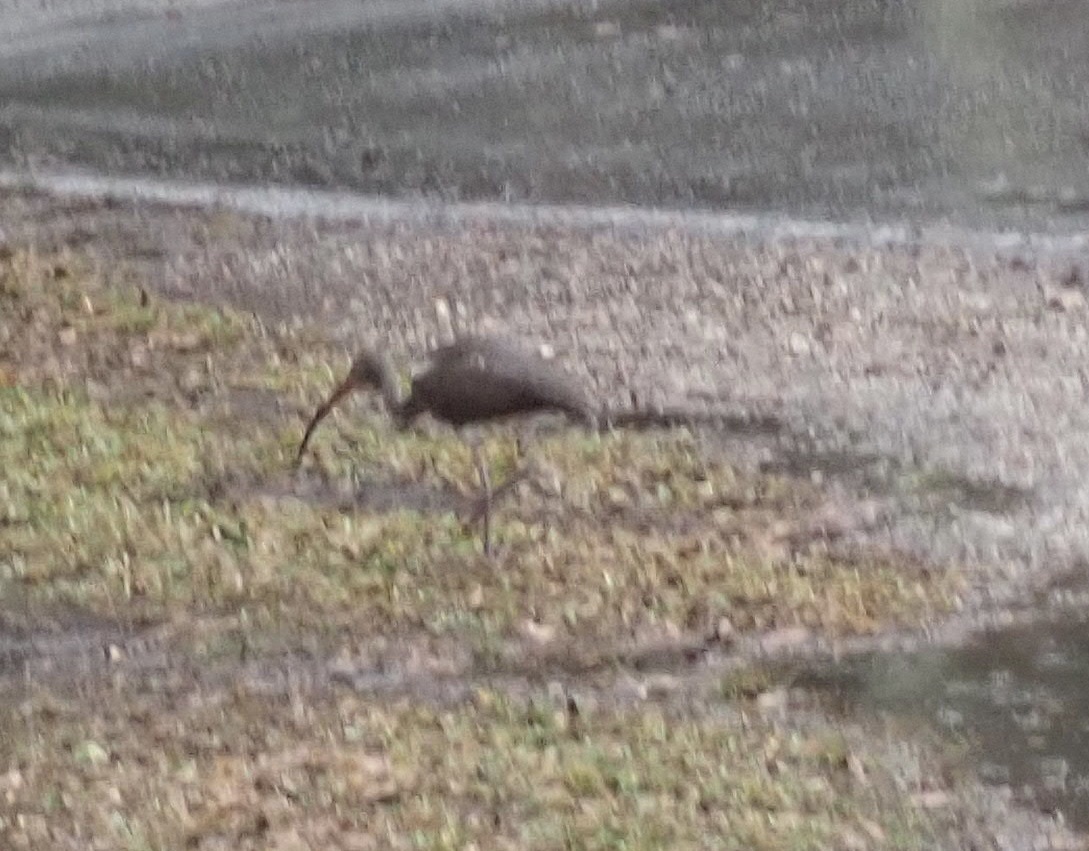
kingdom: Animalia
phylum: Chordata
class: Aves
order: Pelecaniformes
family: Threskiornithidae
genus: Eudocimus
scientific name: Eudocimus albus
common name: White ibis
